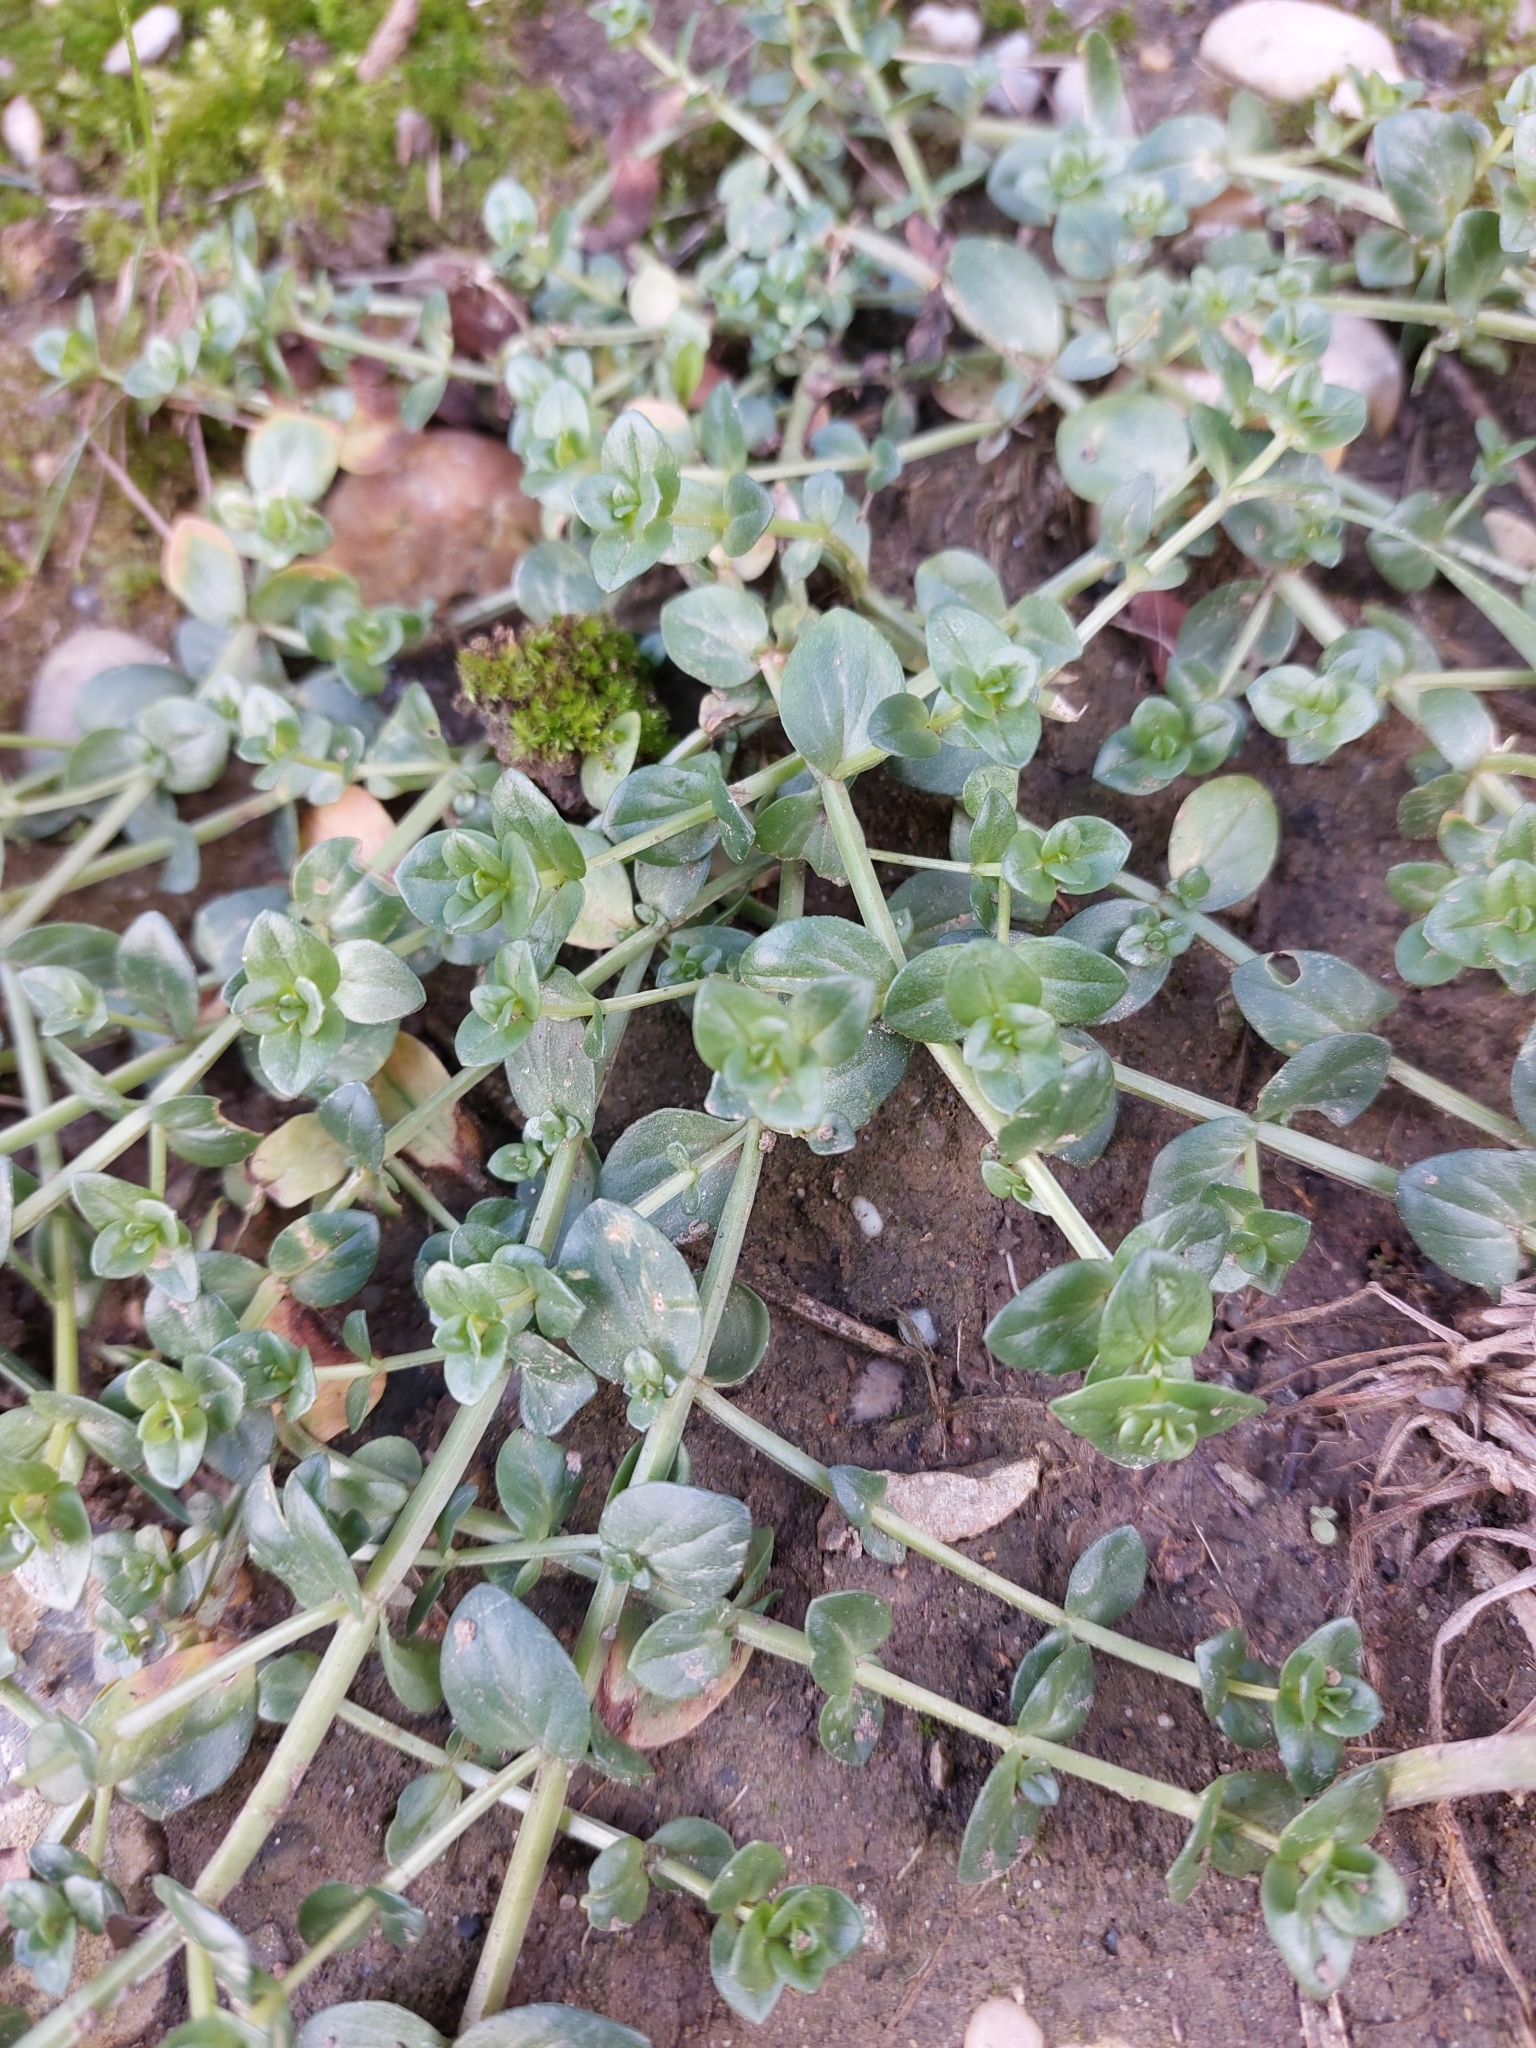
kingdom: Plantae
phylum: Tracheophyta
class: Magnoliopsida
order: Ericales
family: Primulaceae
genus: Lysimachia
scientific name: Lysimachia arvensis
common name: Scarlet pimpernel
